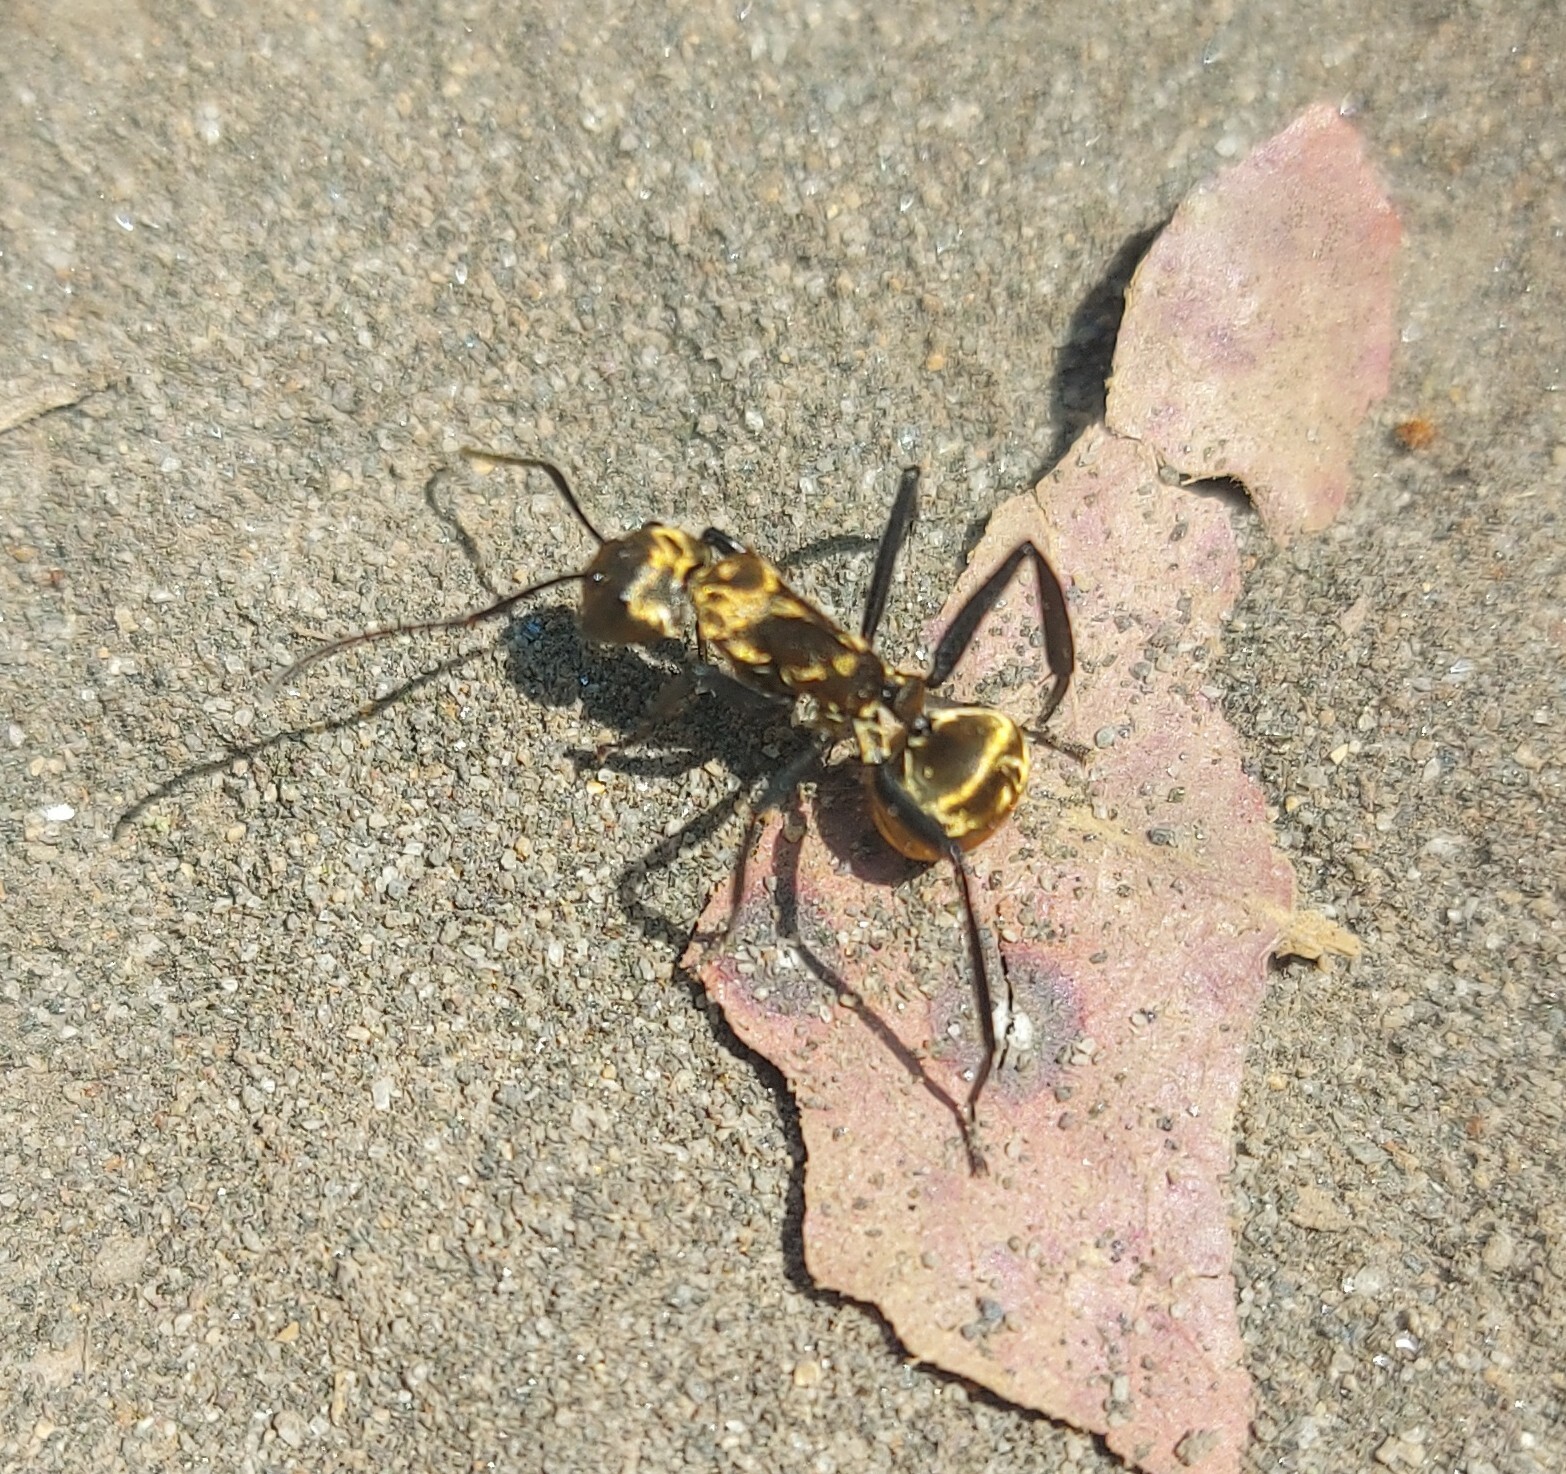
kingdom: Animalia
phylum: Arthropoda
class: Insecta
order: Hymenoptera
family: Formicidae
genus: Camponotus
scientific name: Camponotus sericeiventris
